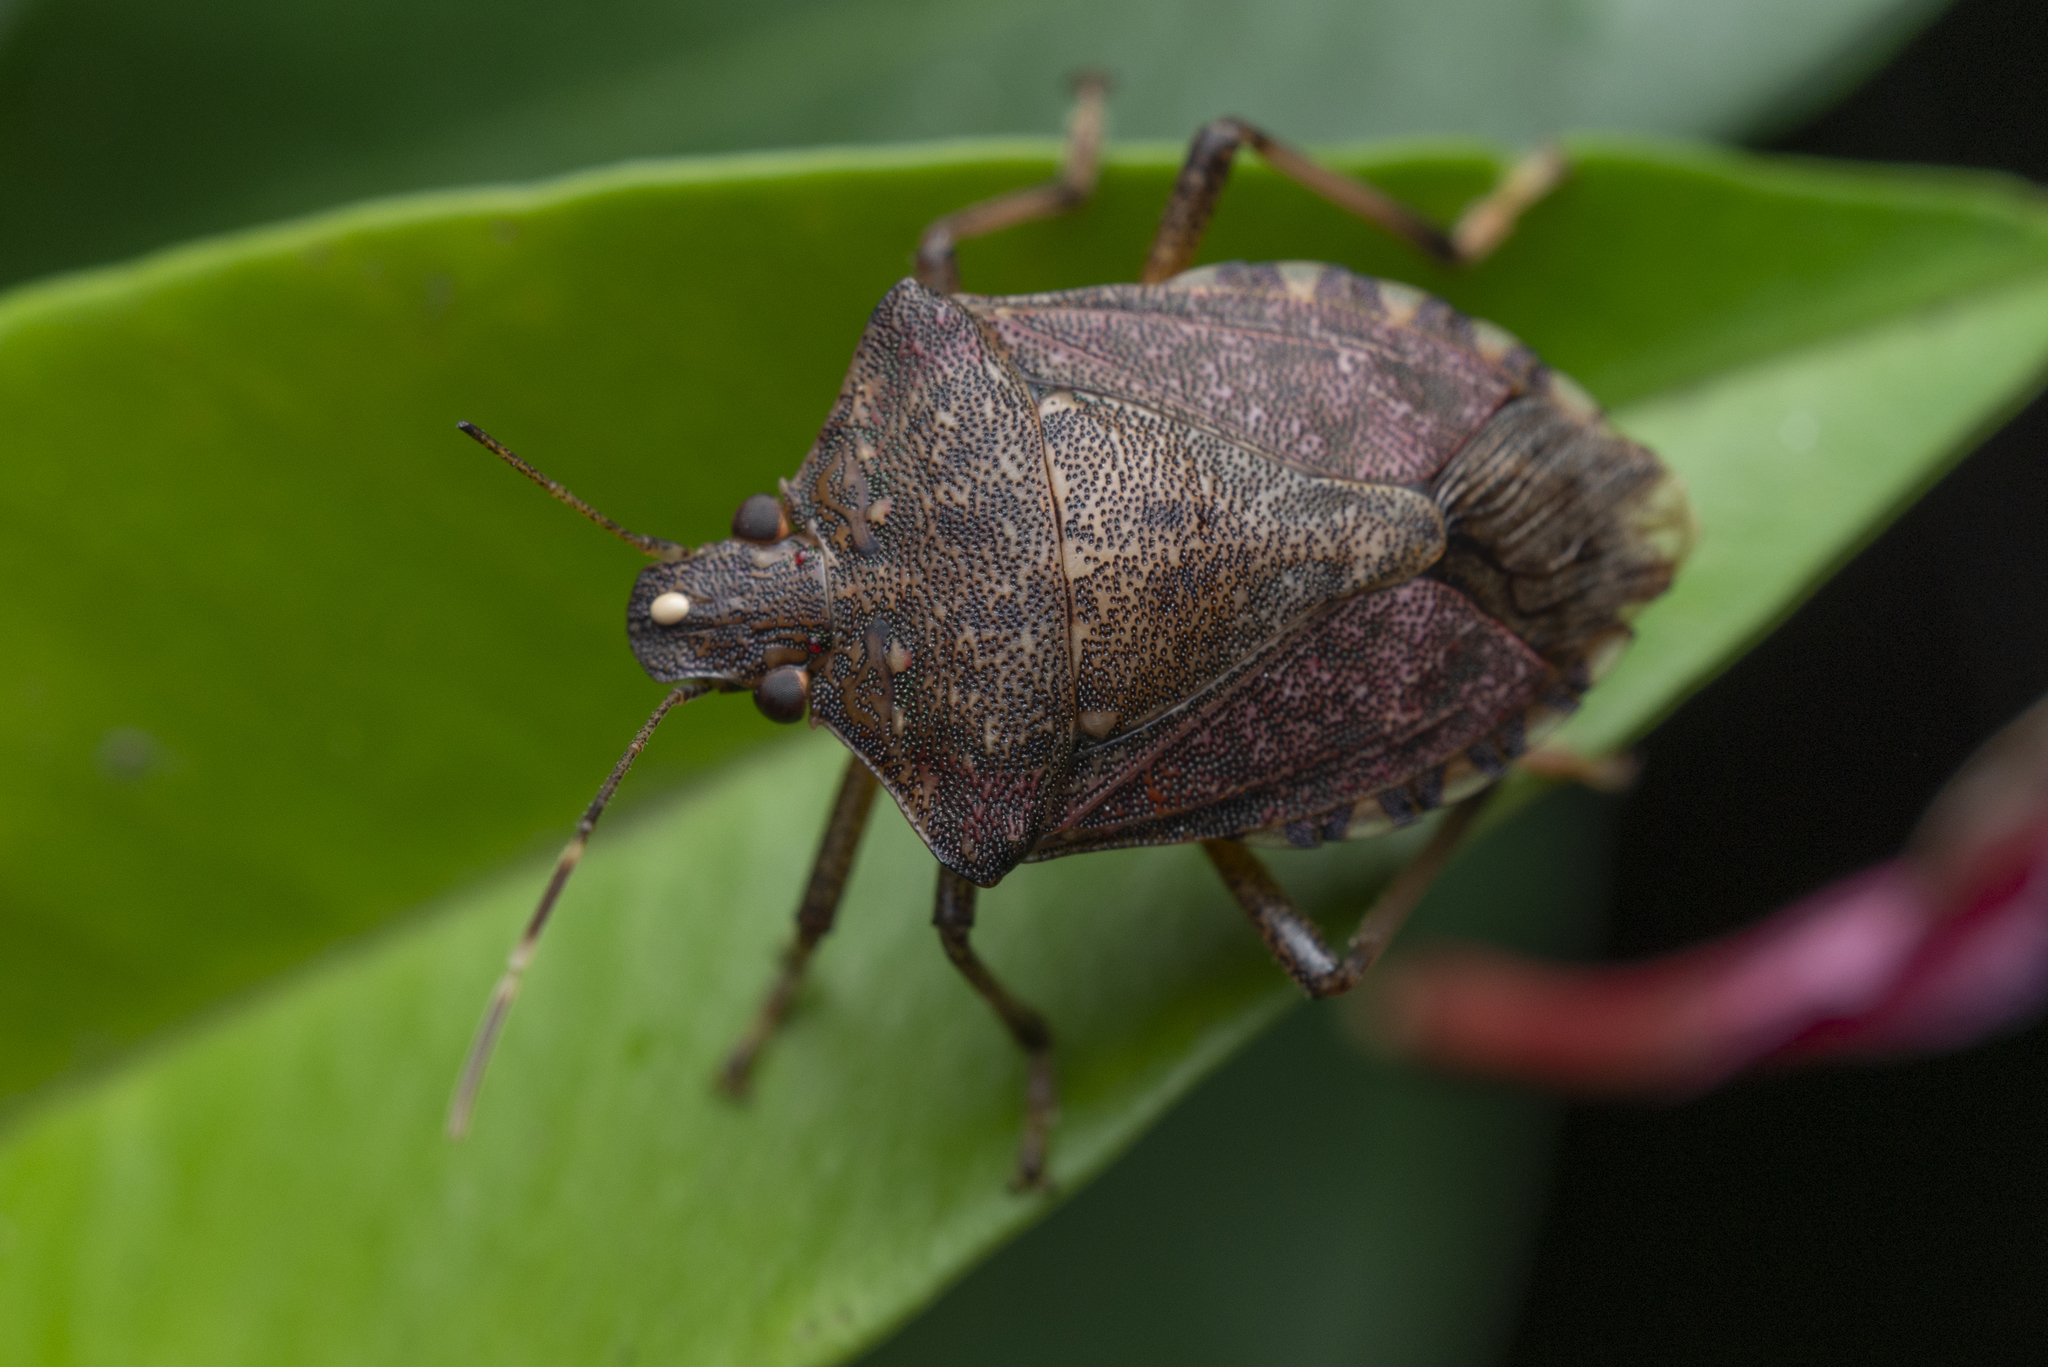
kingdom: Animalia
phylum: Arthropoda
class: Insecta
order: Hemiptera
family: Pentatomidae
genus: Halyomorpha
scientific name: Halyomorpha halys
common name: Brown marmorated stink bug
